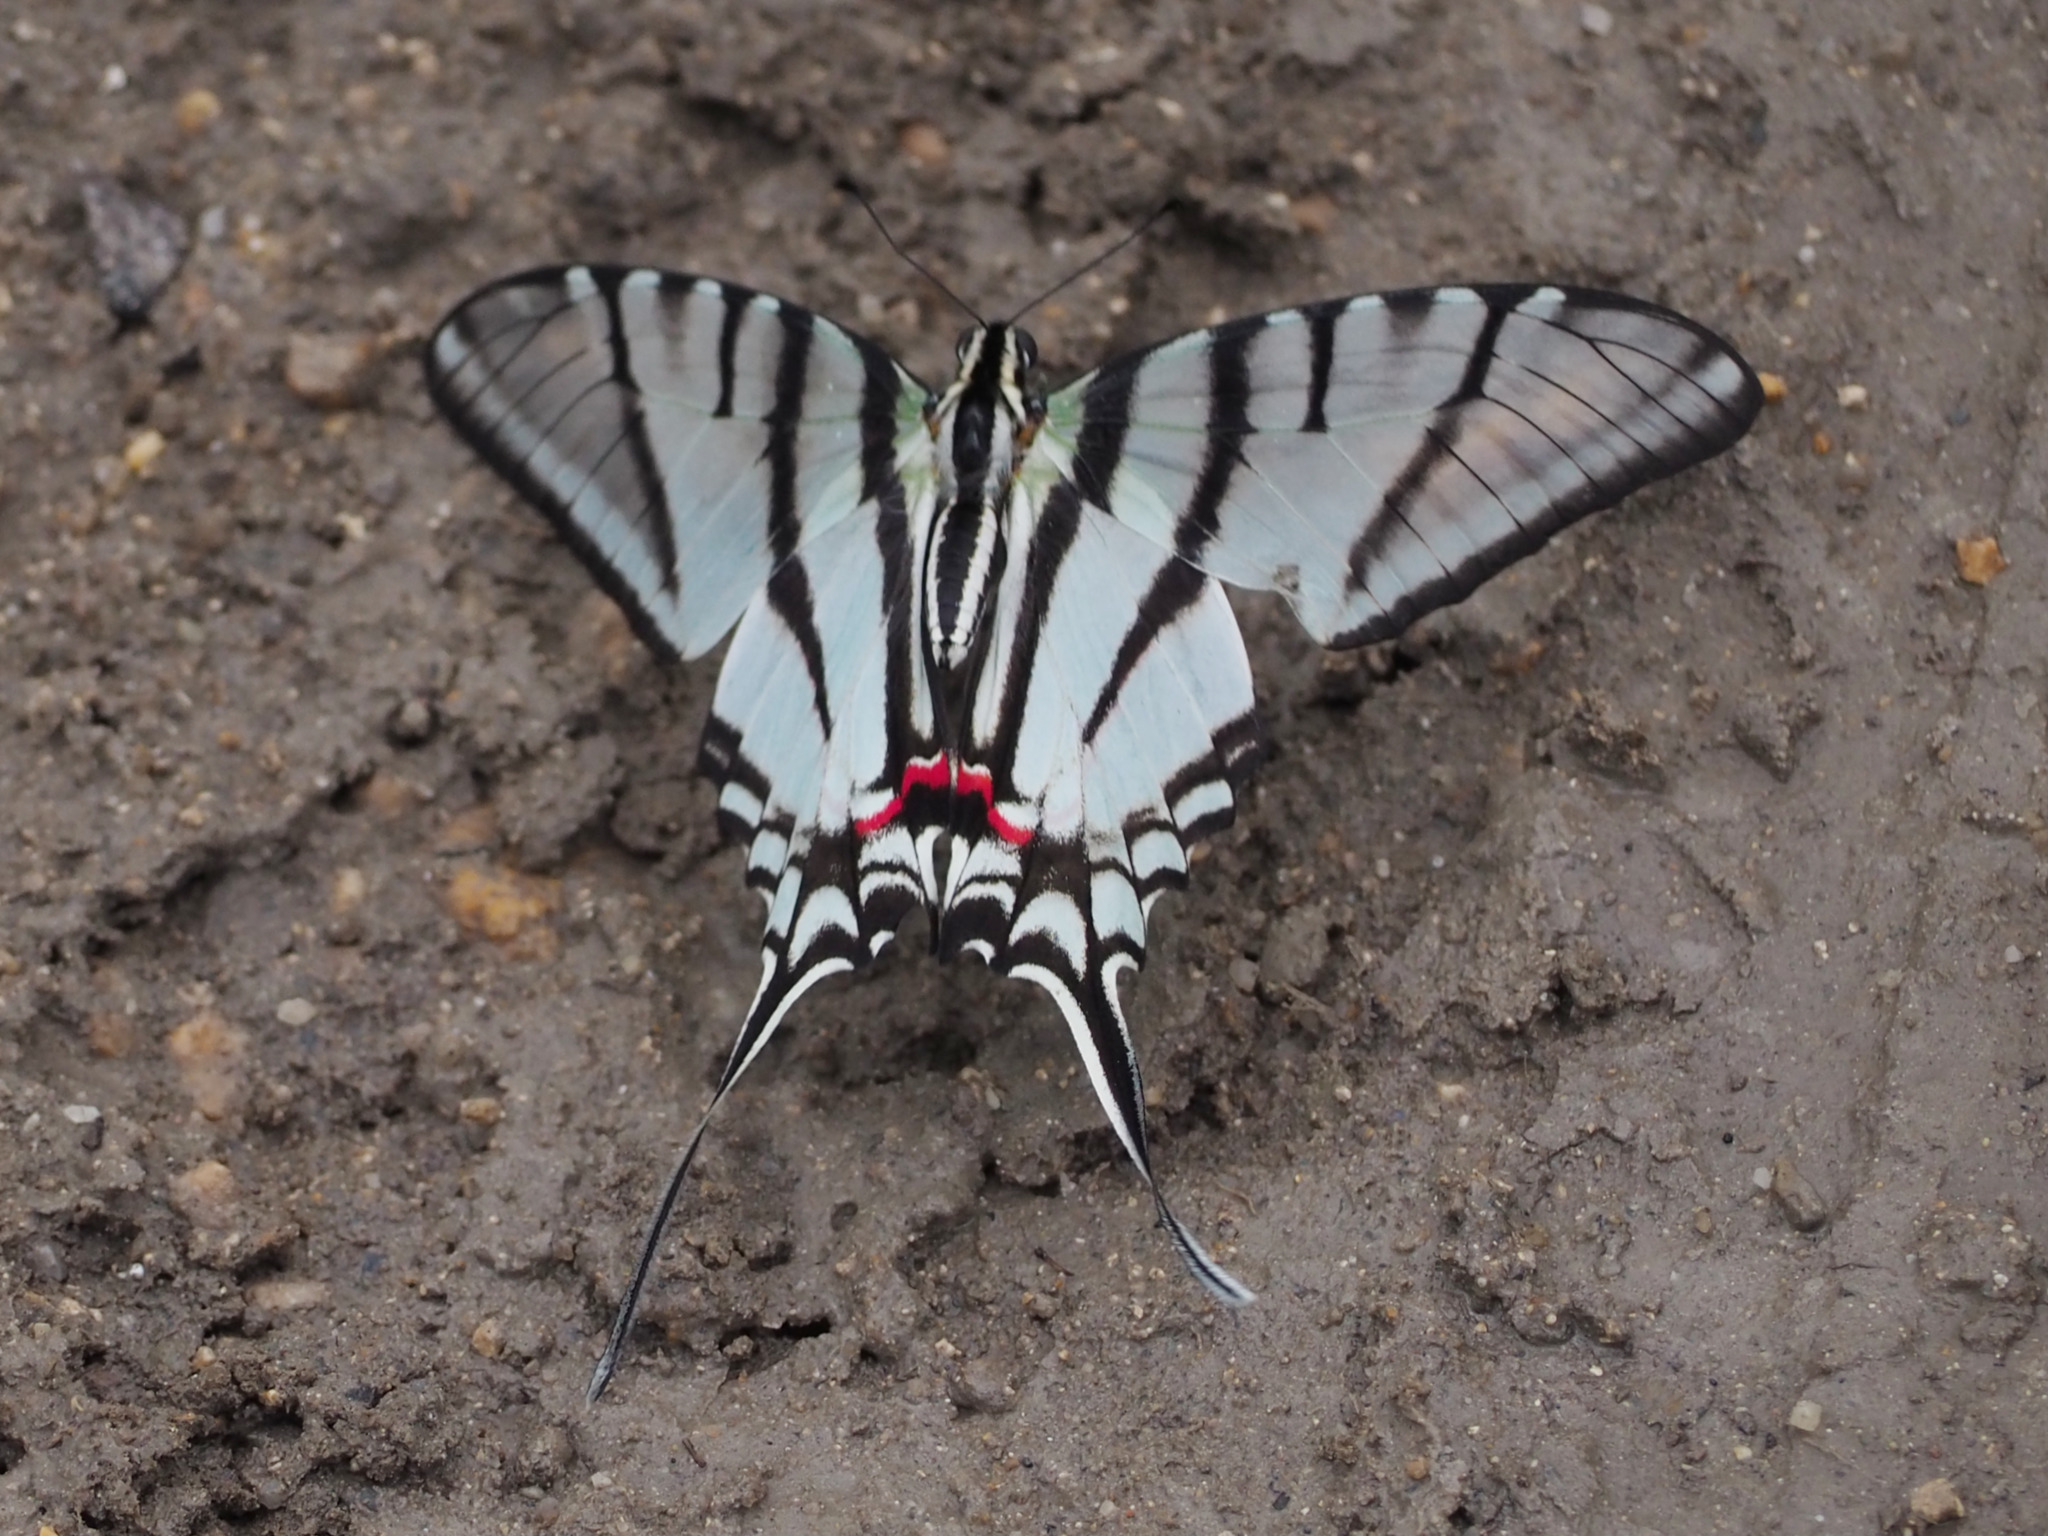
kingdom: Animalia
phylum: Arthropoda
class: Insecta
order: Lepidoptera
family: Papilionidae
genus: Protographium
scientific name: Protographium epidaus
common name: Mexican kite swallowtail
